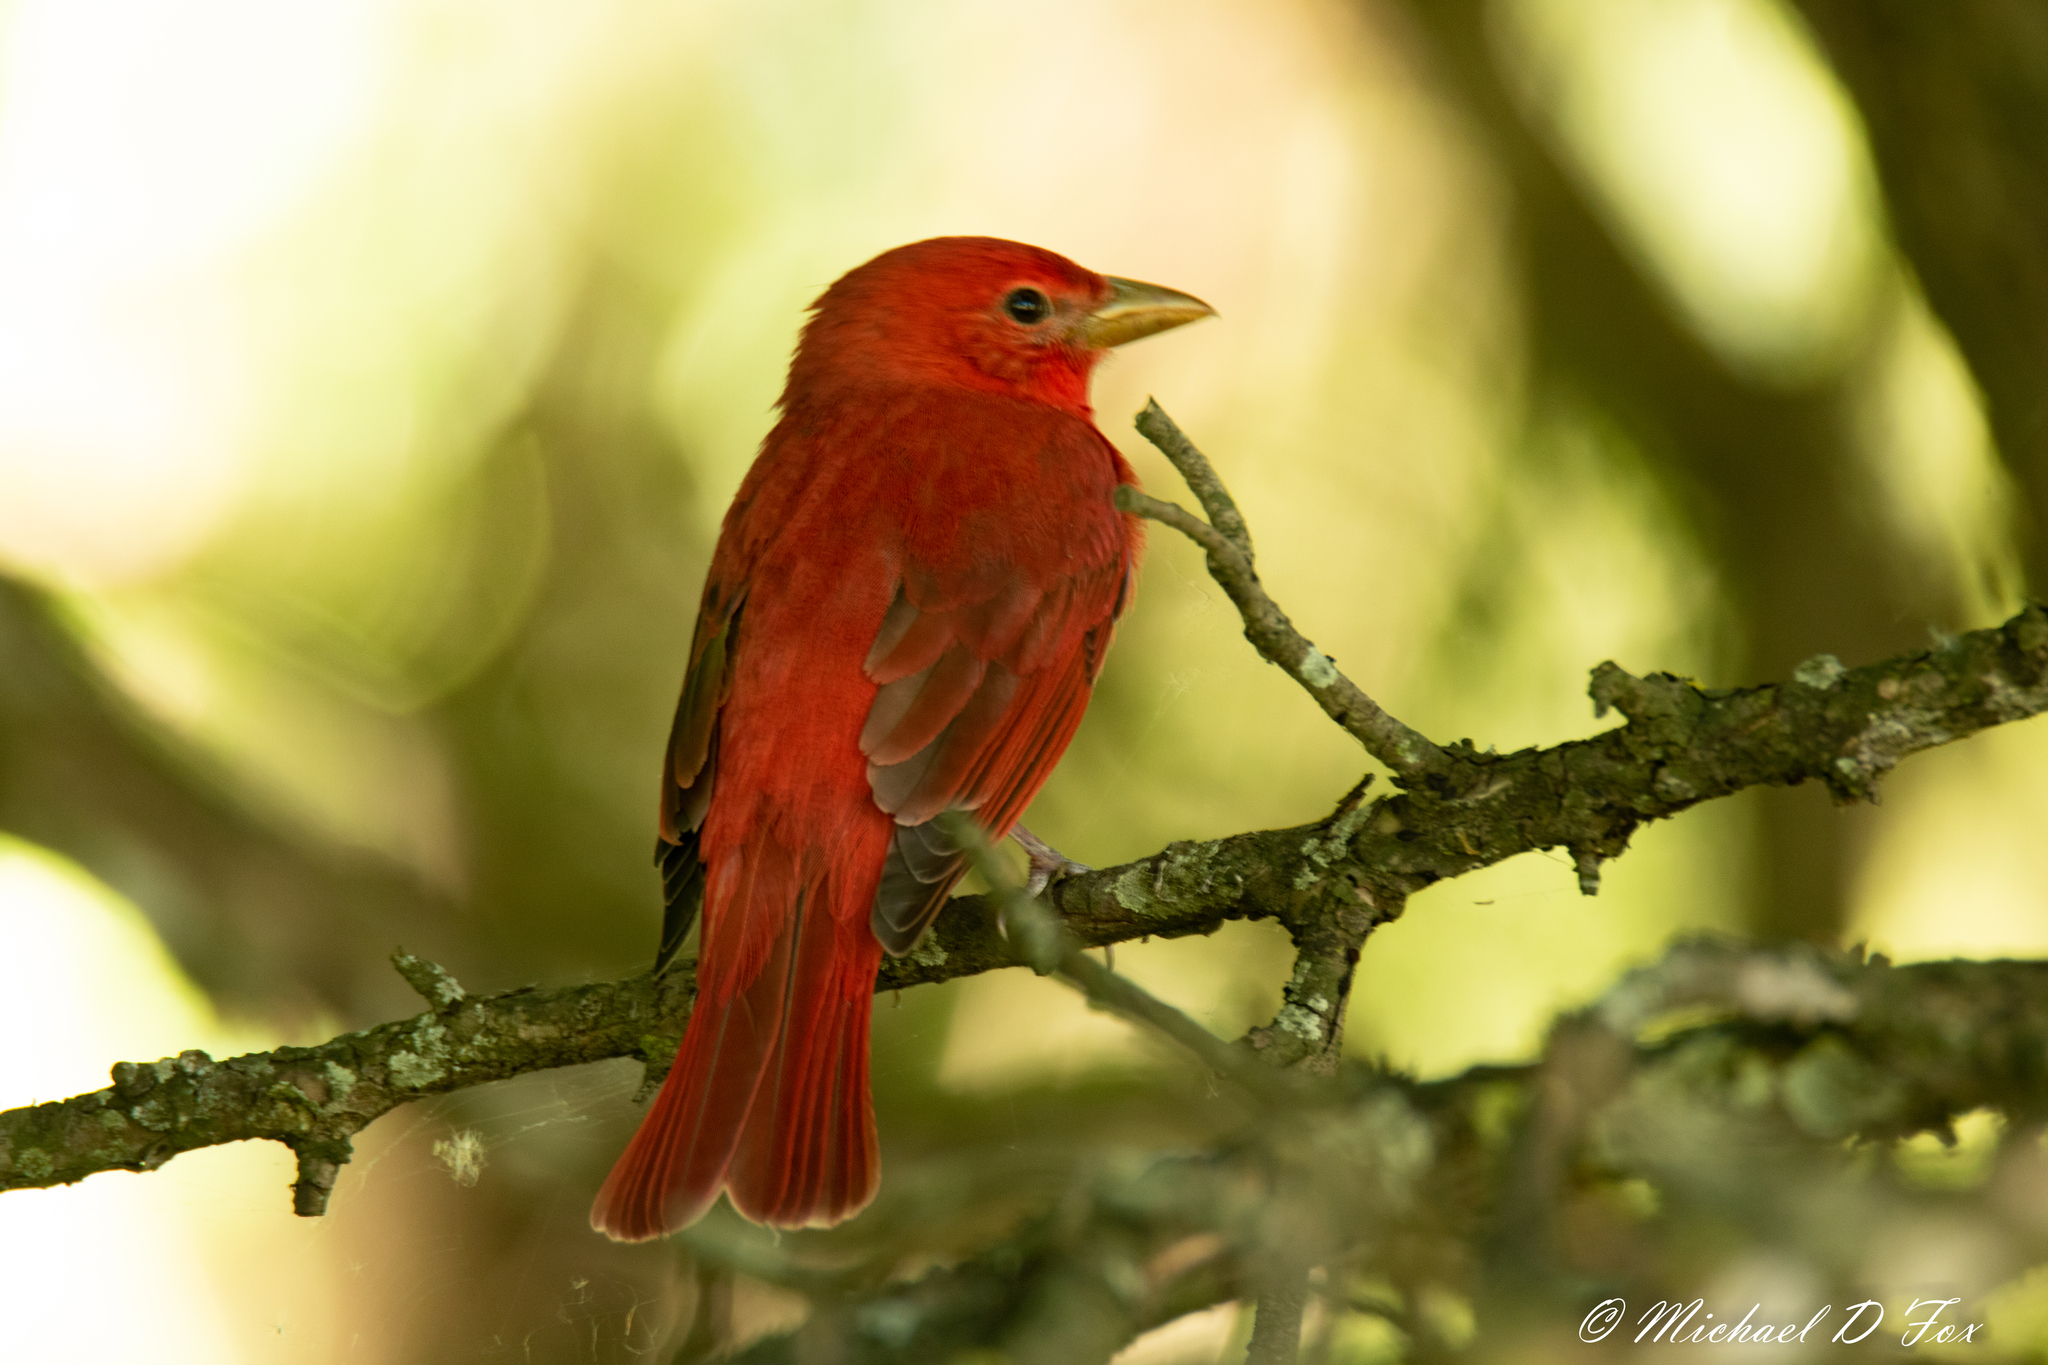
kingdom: Animalia
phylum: Chordata
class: Aves
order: Passeriformes
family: Cardinalidae
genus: Piranga
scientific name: Piranga rubra
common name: Summer tanager
